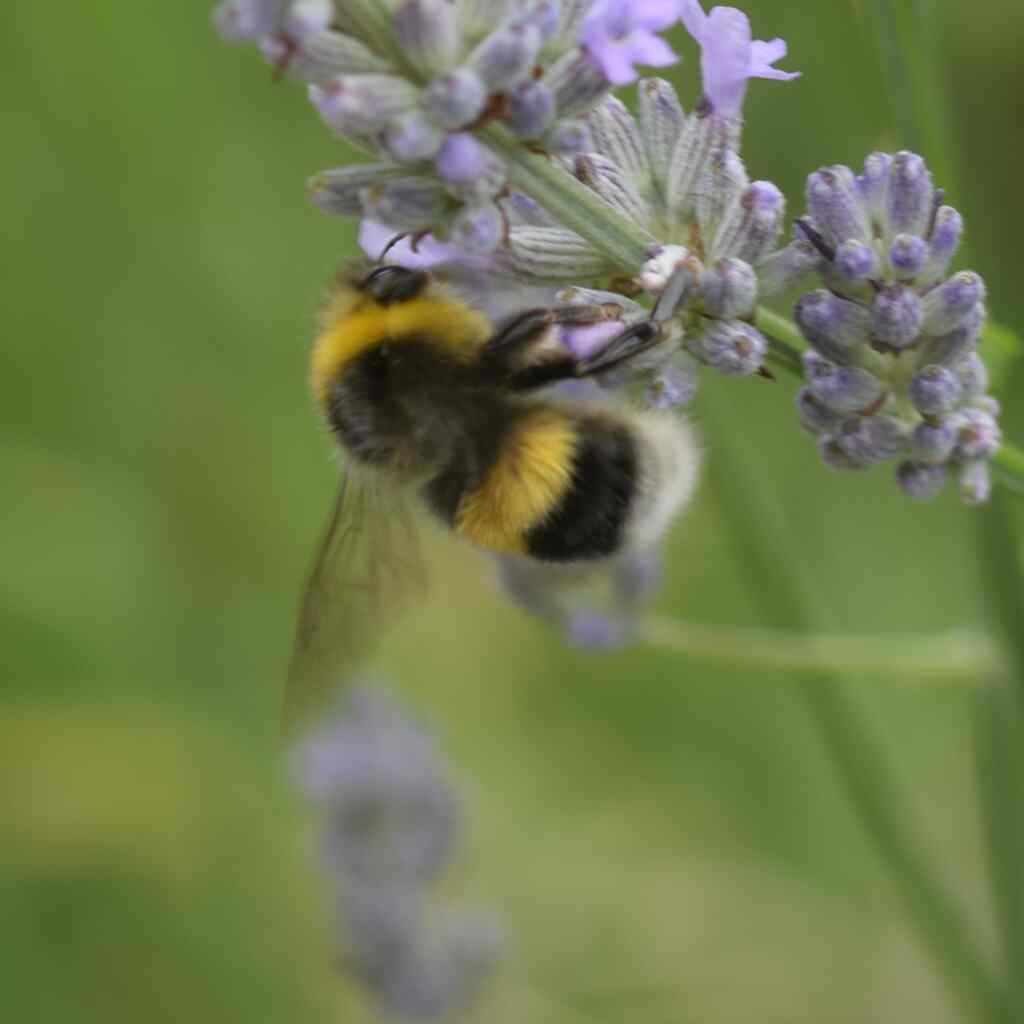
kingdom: Animalia
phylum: Arthropoda
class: Insecta
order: Hymenoptera
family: Apidae
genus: Bombus
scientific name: Bombus lucorum
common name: White-tailed bumblebee
